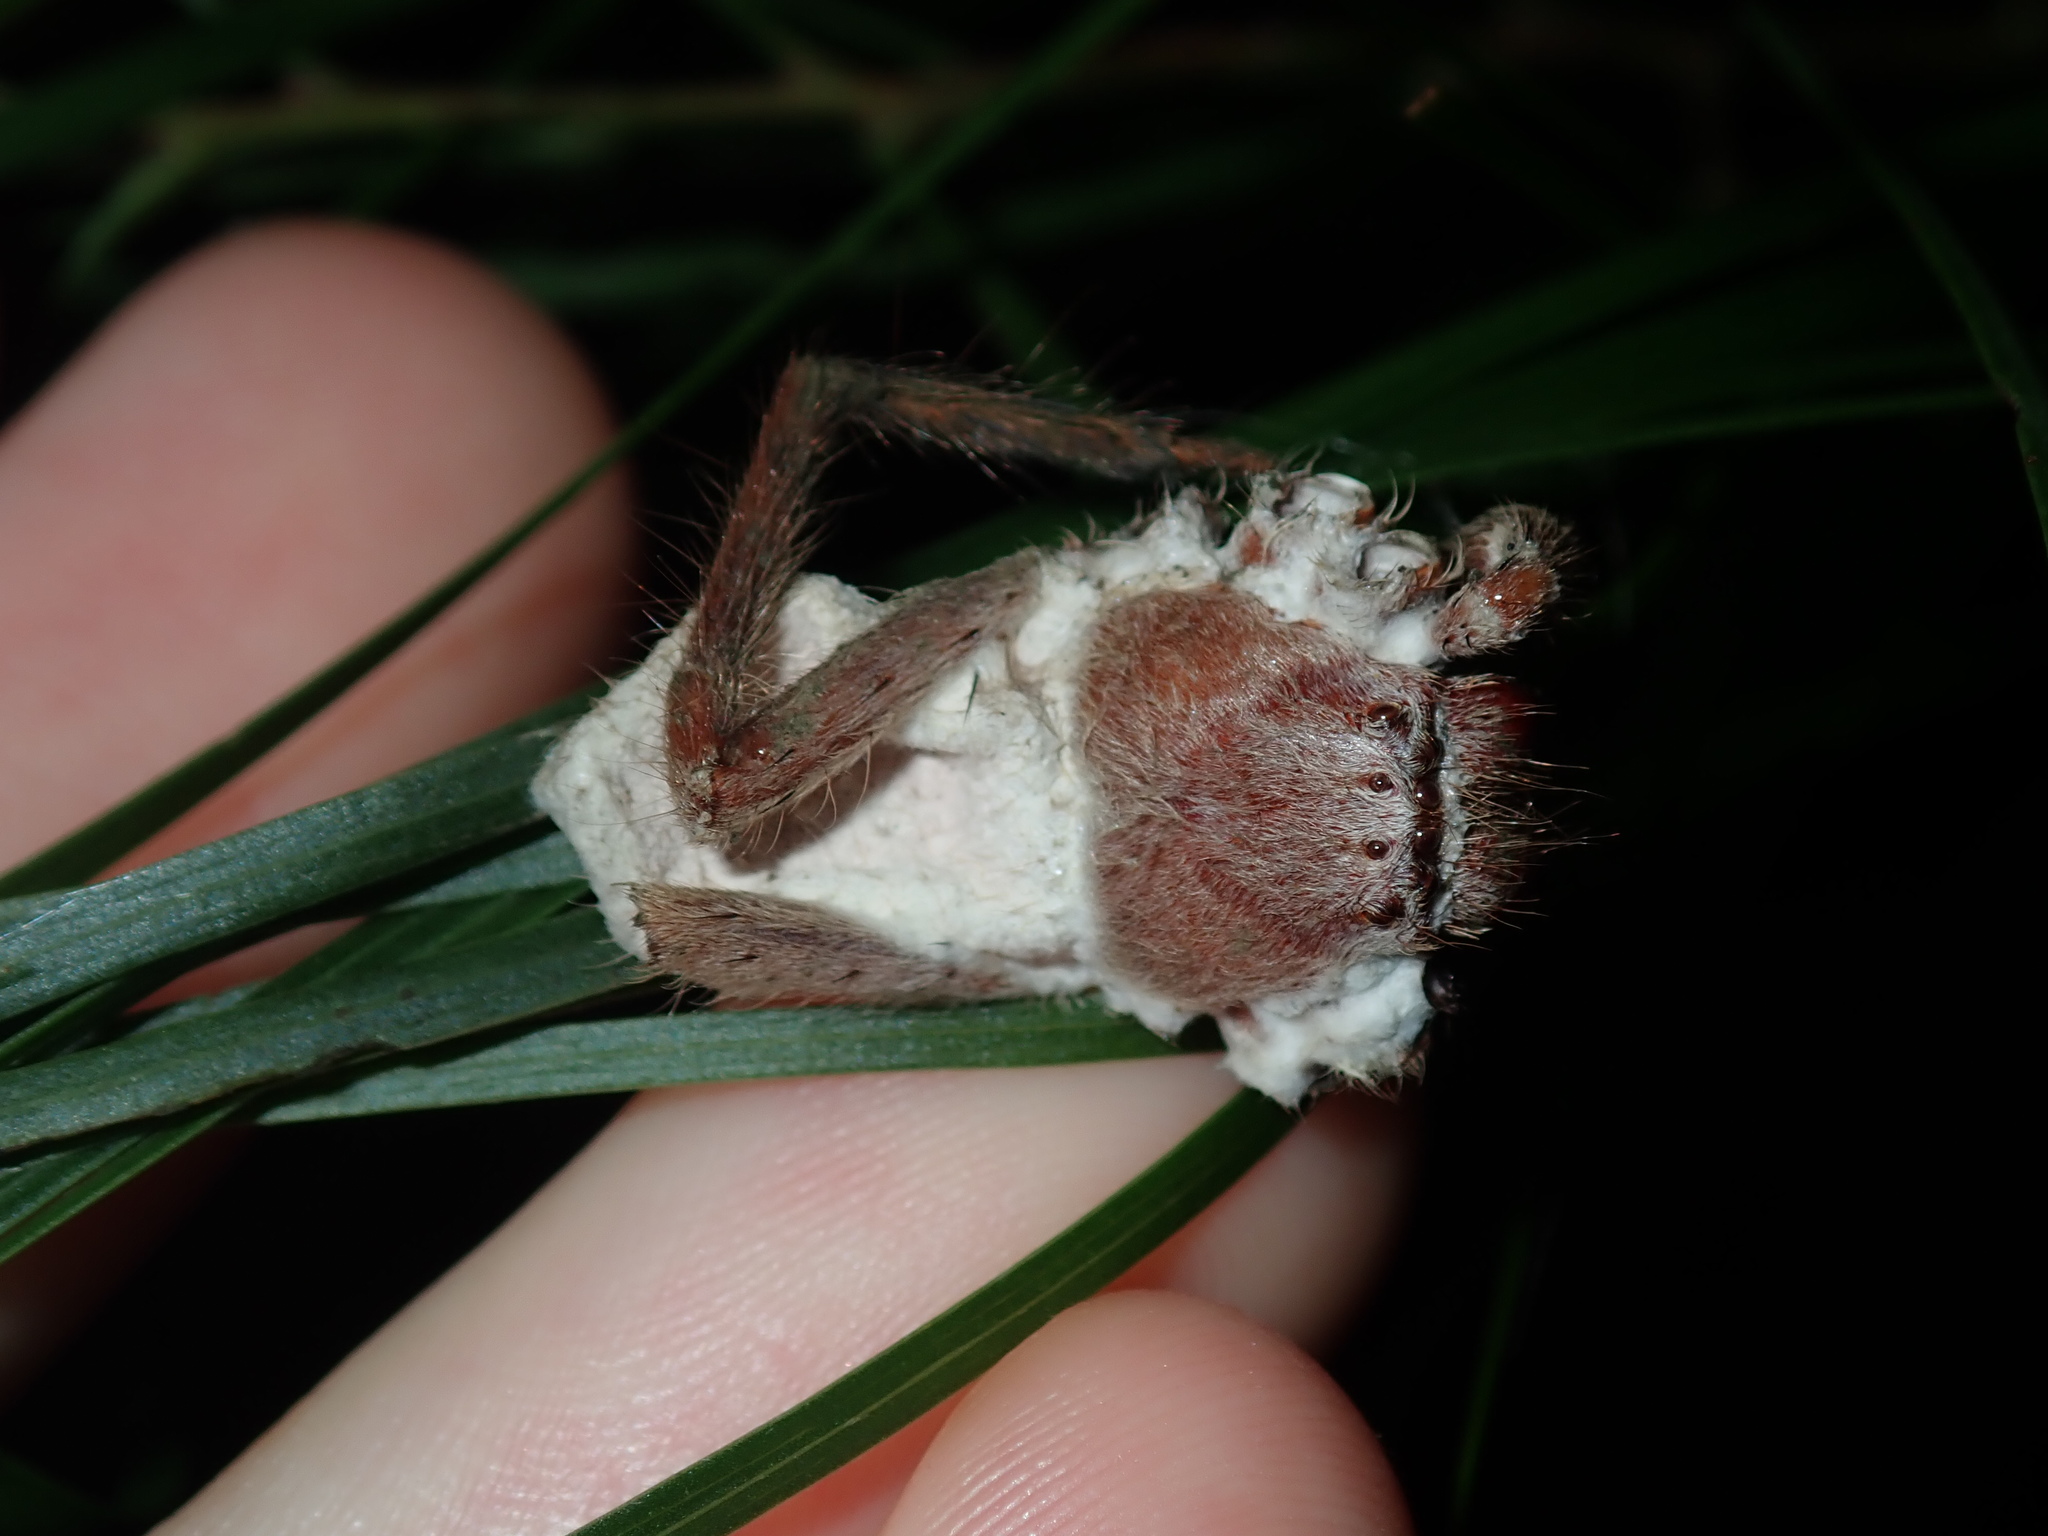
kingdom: Animalia
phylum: Arthropoda
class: Arachnida
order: Araneae
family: Sparassidae
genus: Isopeda
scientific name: Isopeda villosa
